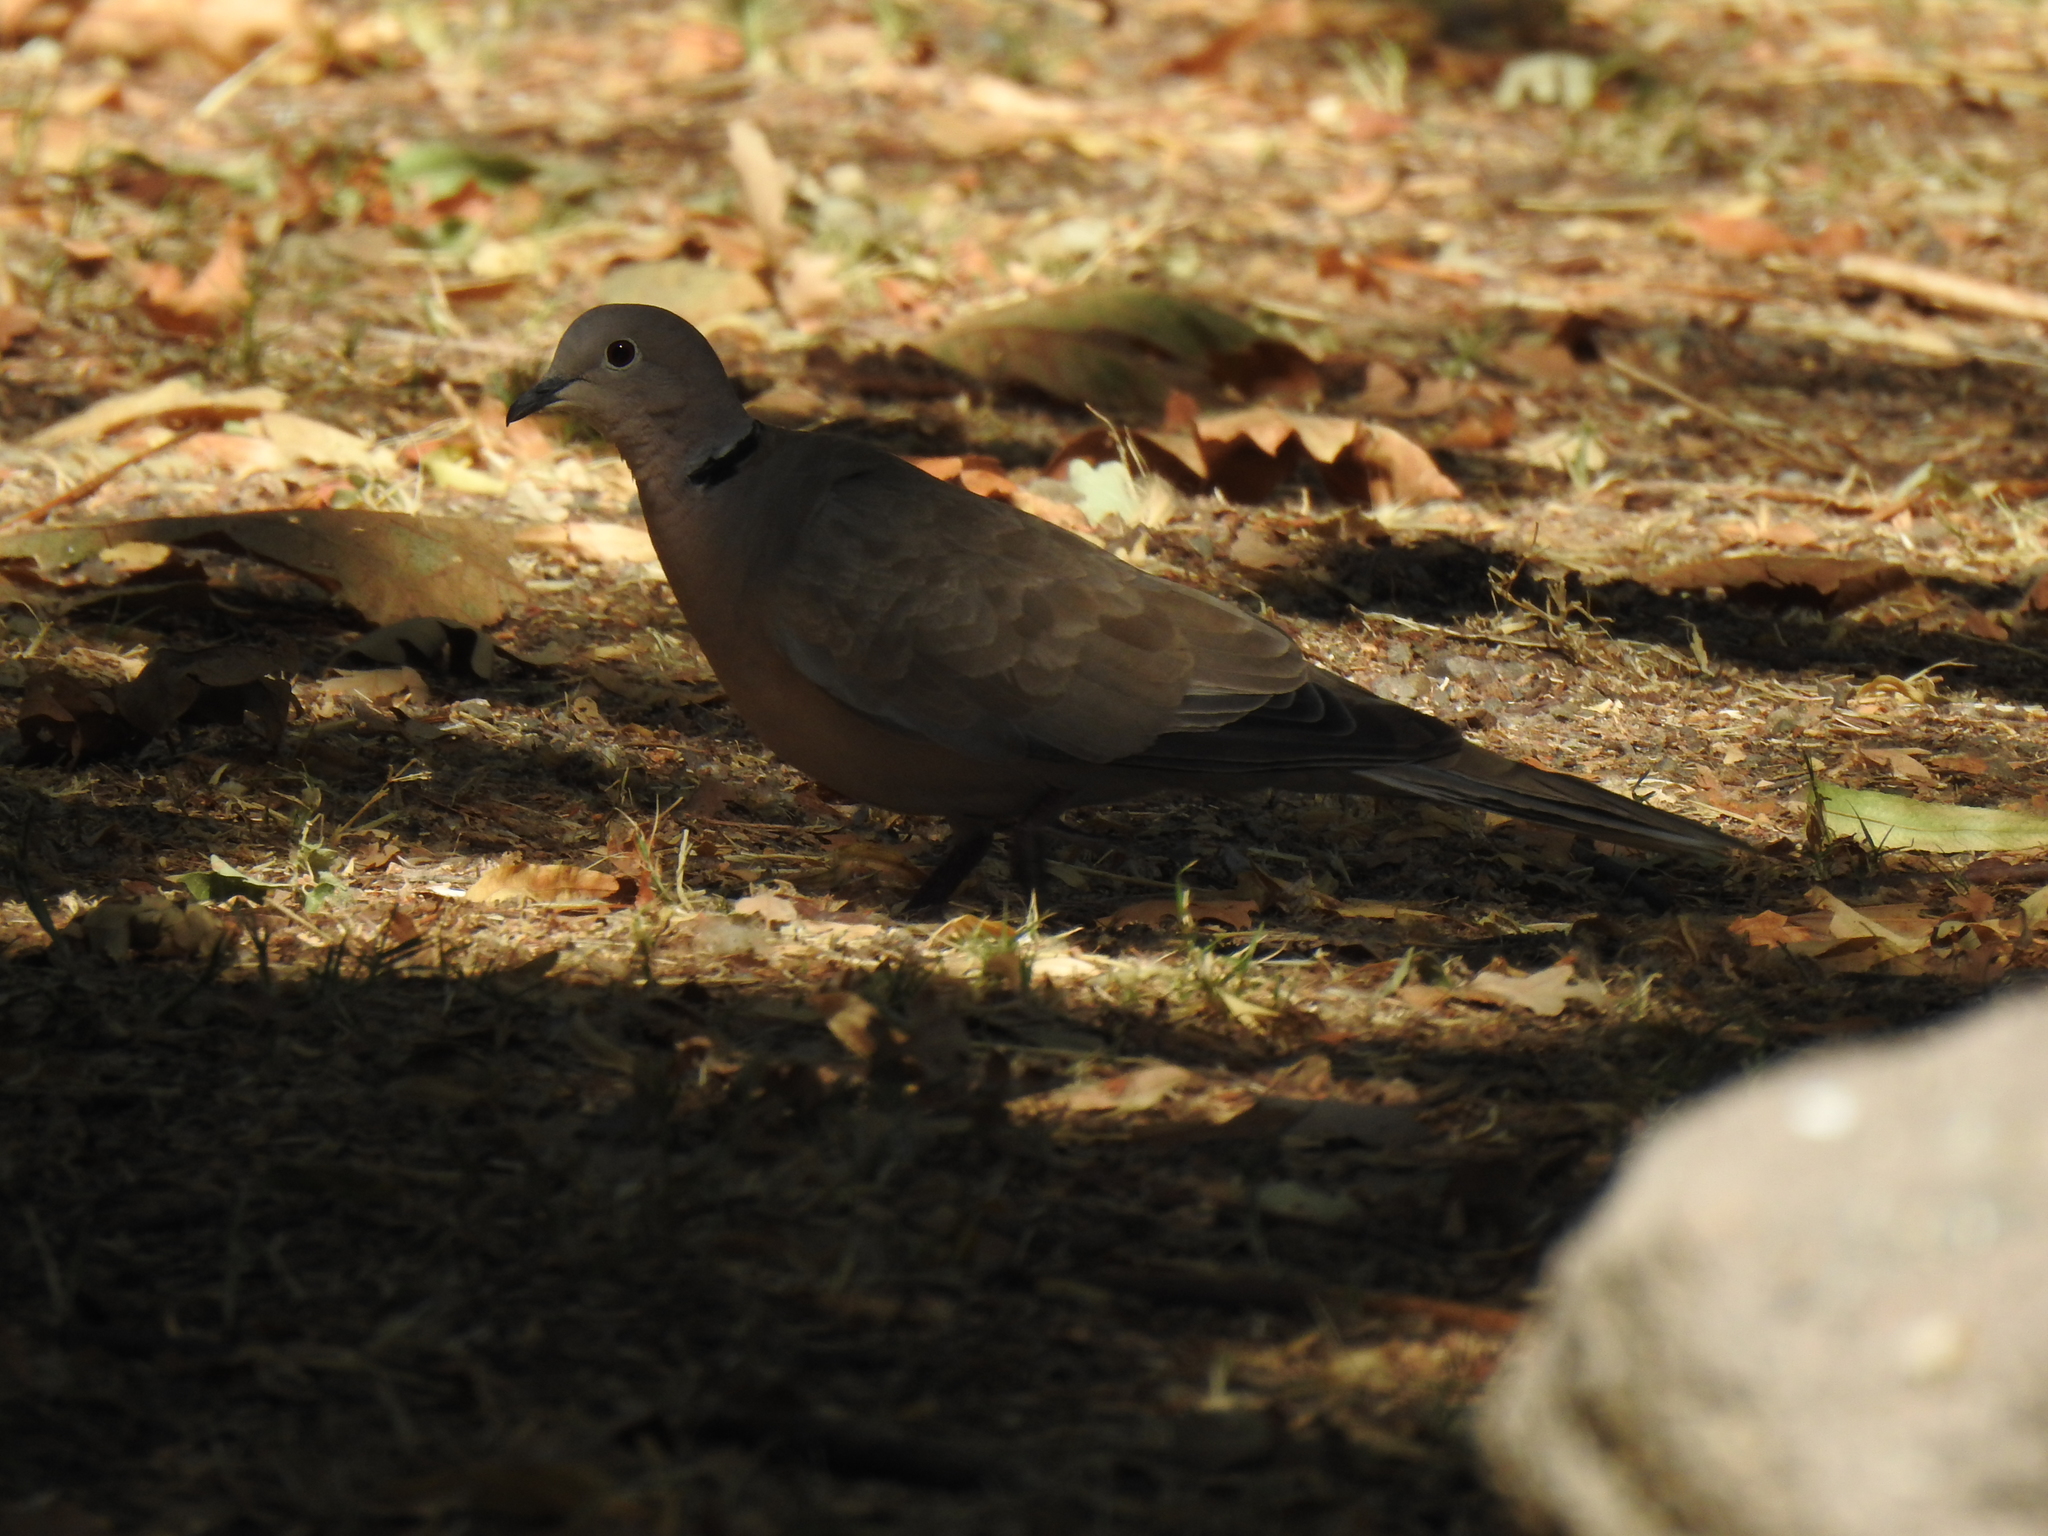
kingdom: Animalia
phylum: Chordata
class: Aves
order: Columbiformes
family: Columbidae
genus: Streptopelia
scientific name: Streptopelia decaocto
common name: Eurasian collared dove
